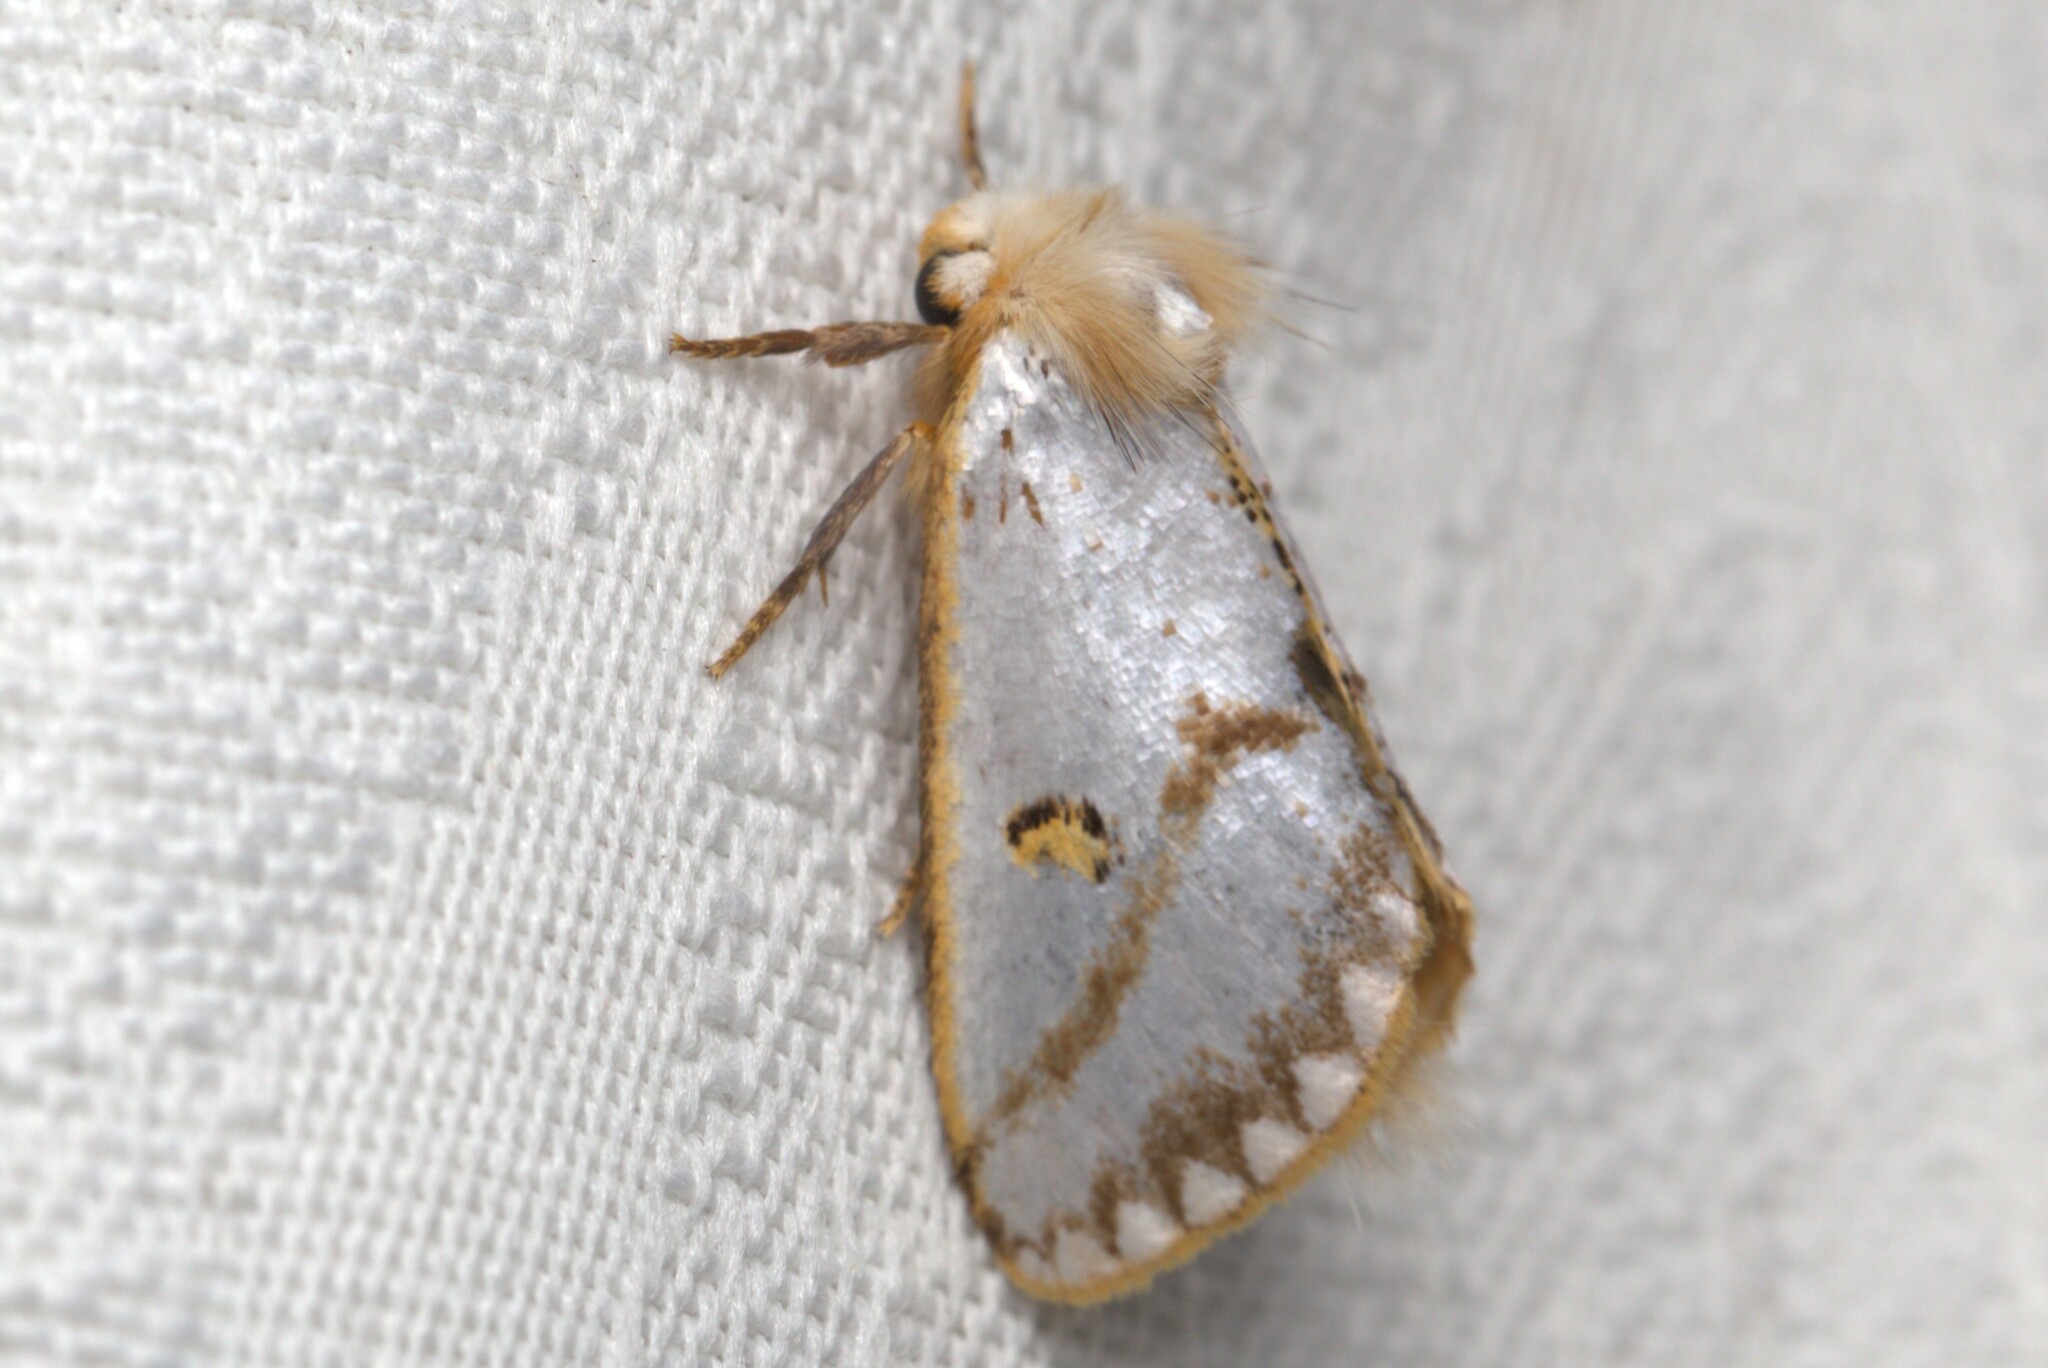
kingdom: Animalia
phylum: Arthropoda
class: Insecta
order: Lepidoptera
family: Notodontidae
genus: Epicoma
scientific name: Epicoma melanosticta
